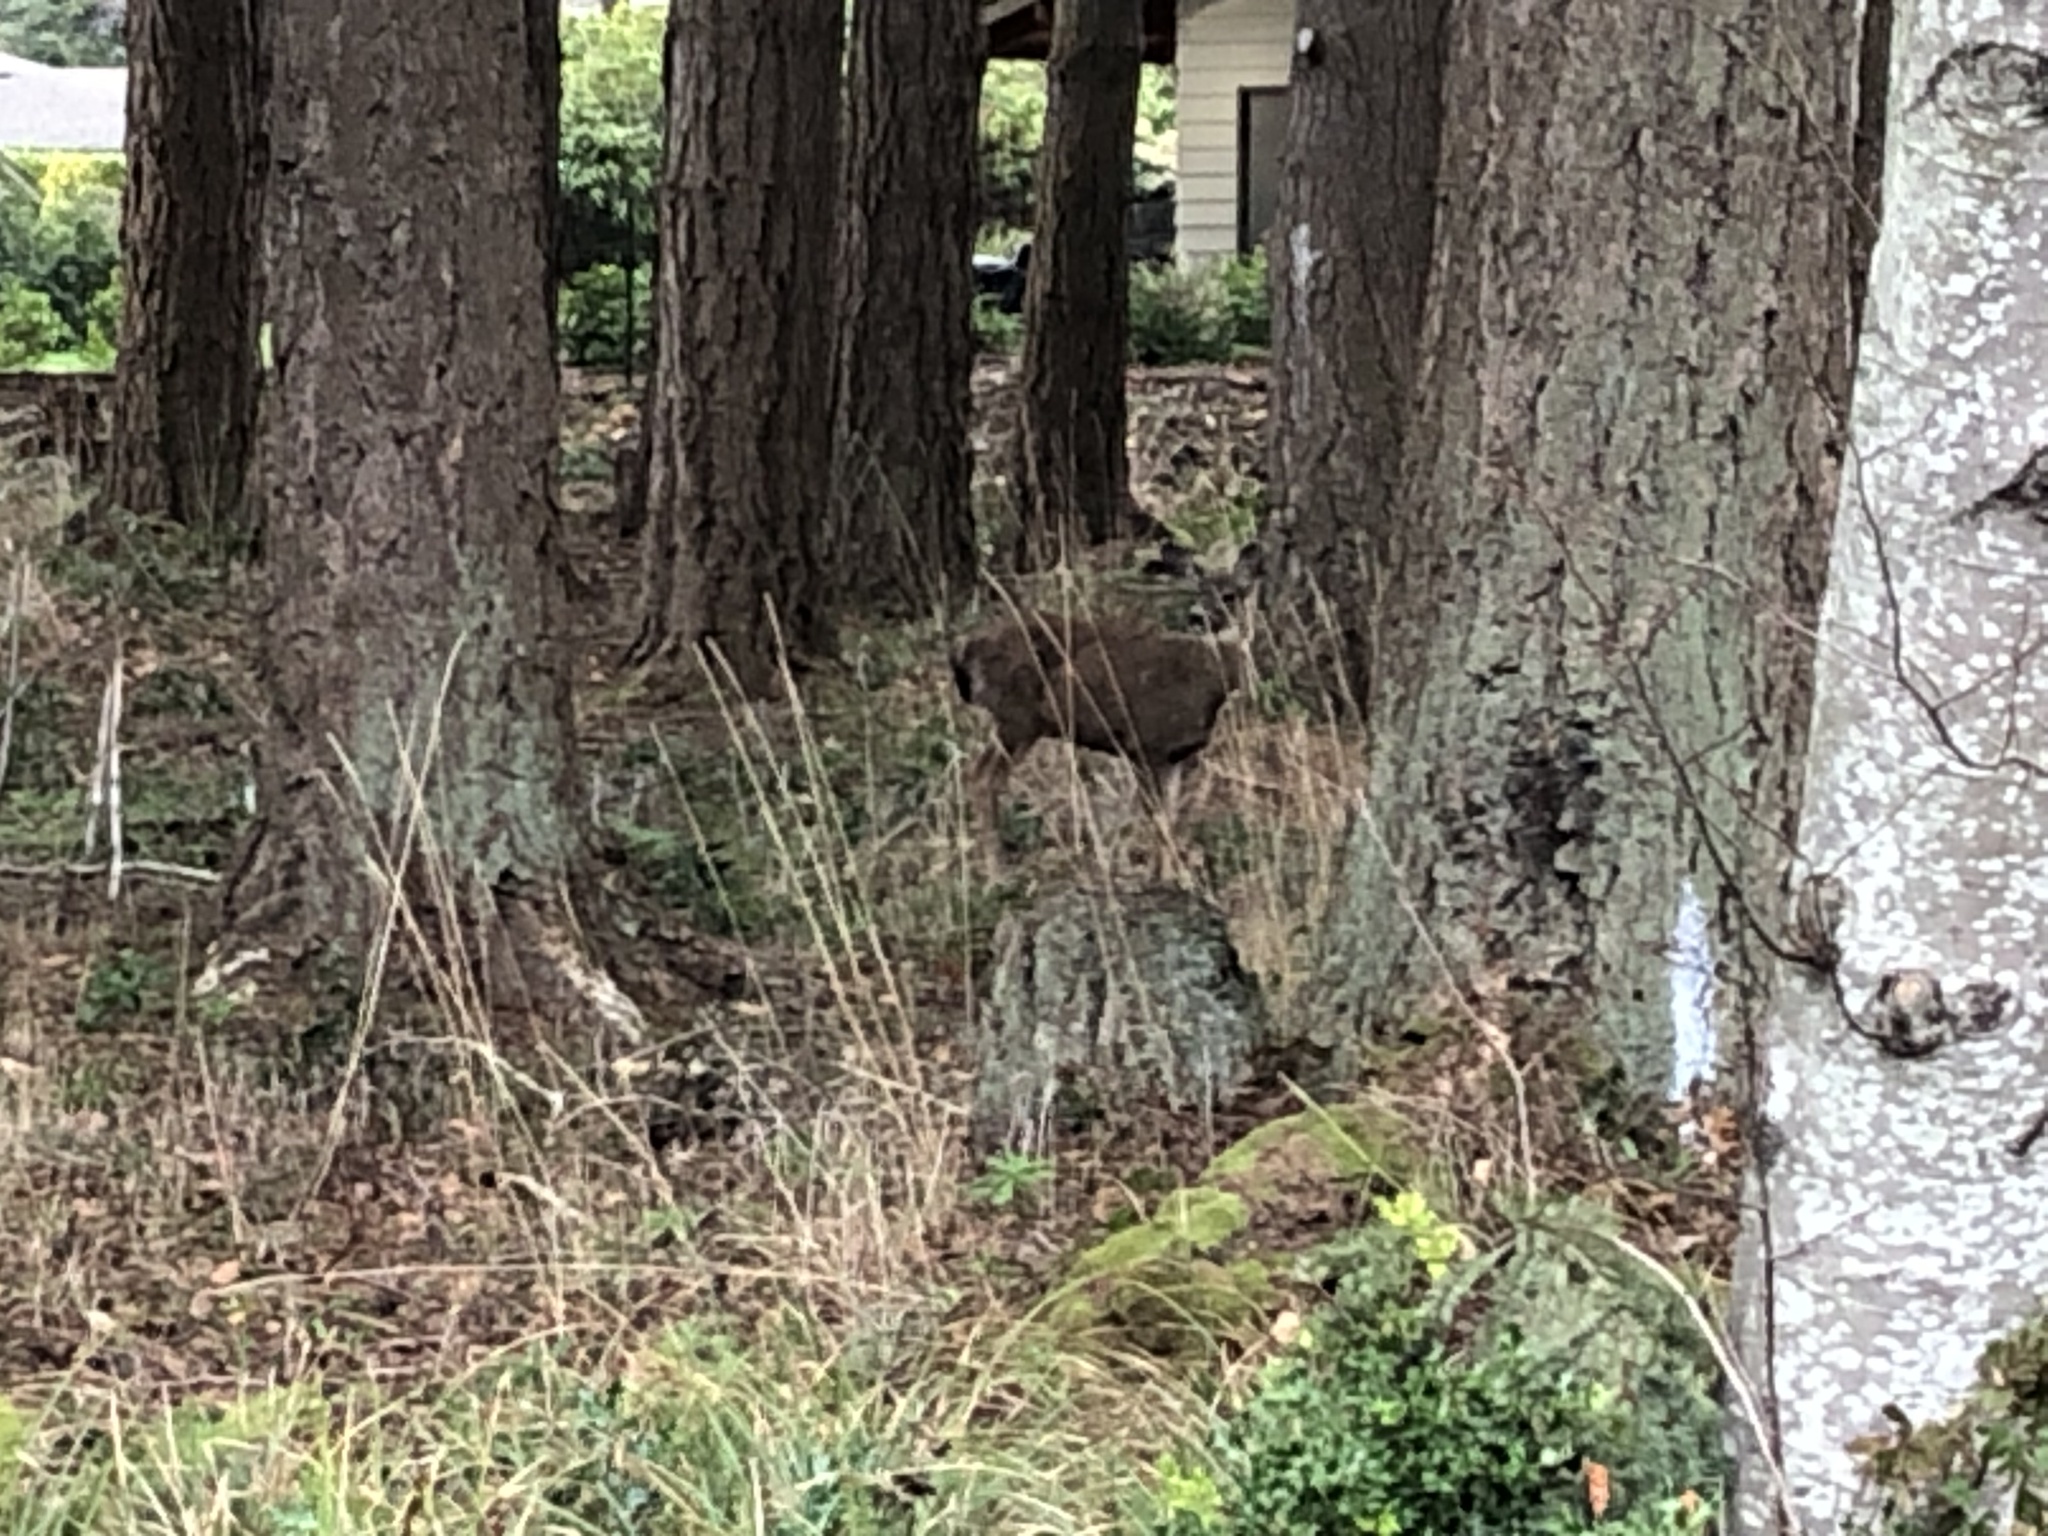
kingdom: Animalia
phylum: Chordata
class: Mammalia
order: Artiodactyla
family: Cervidae
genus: Odocoileus
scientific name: Odocoileus hemionus
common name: Mule deer
